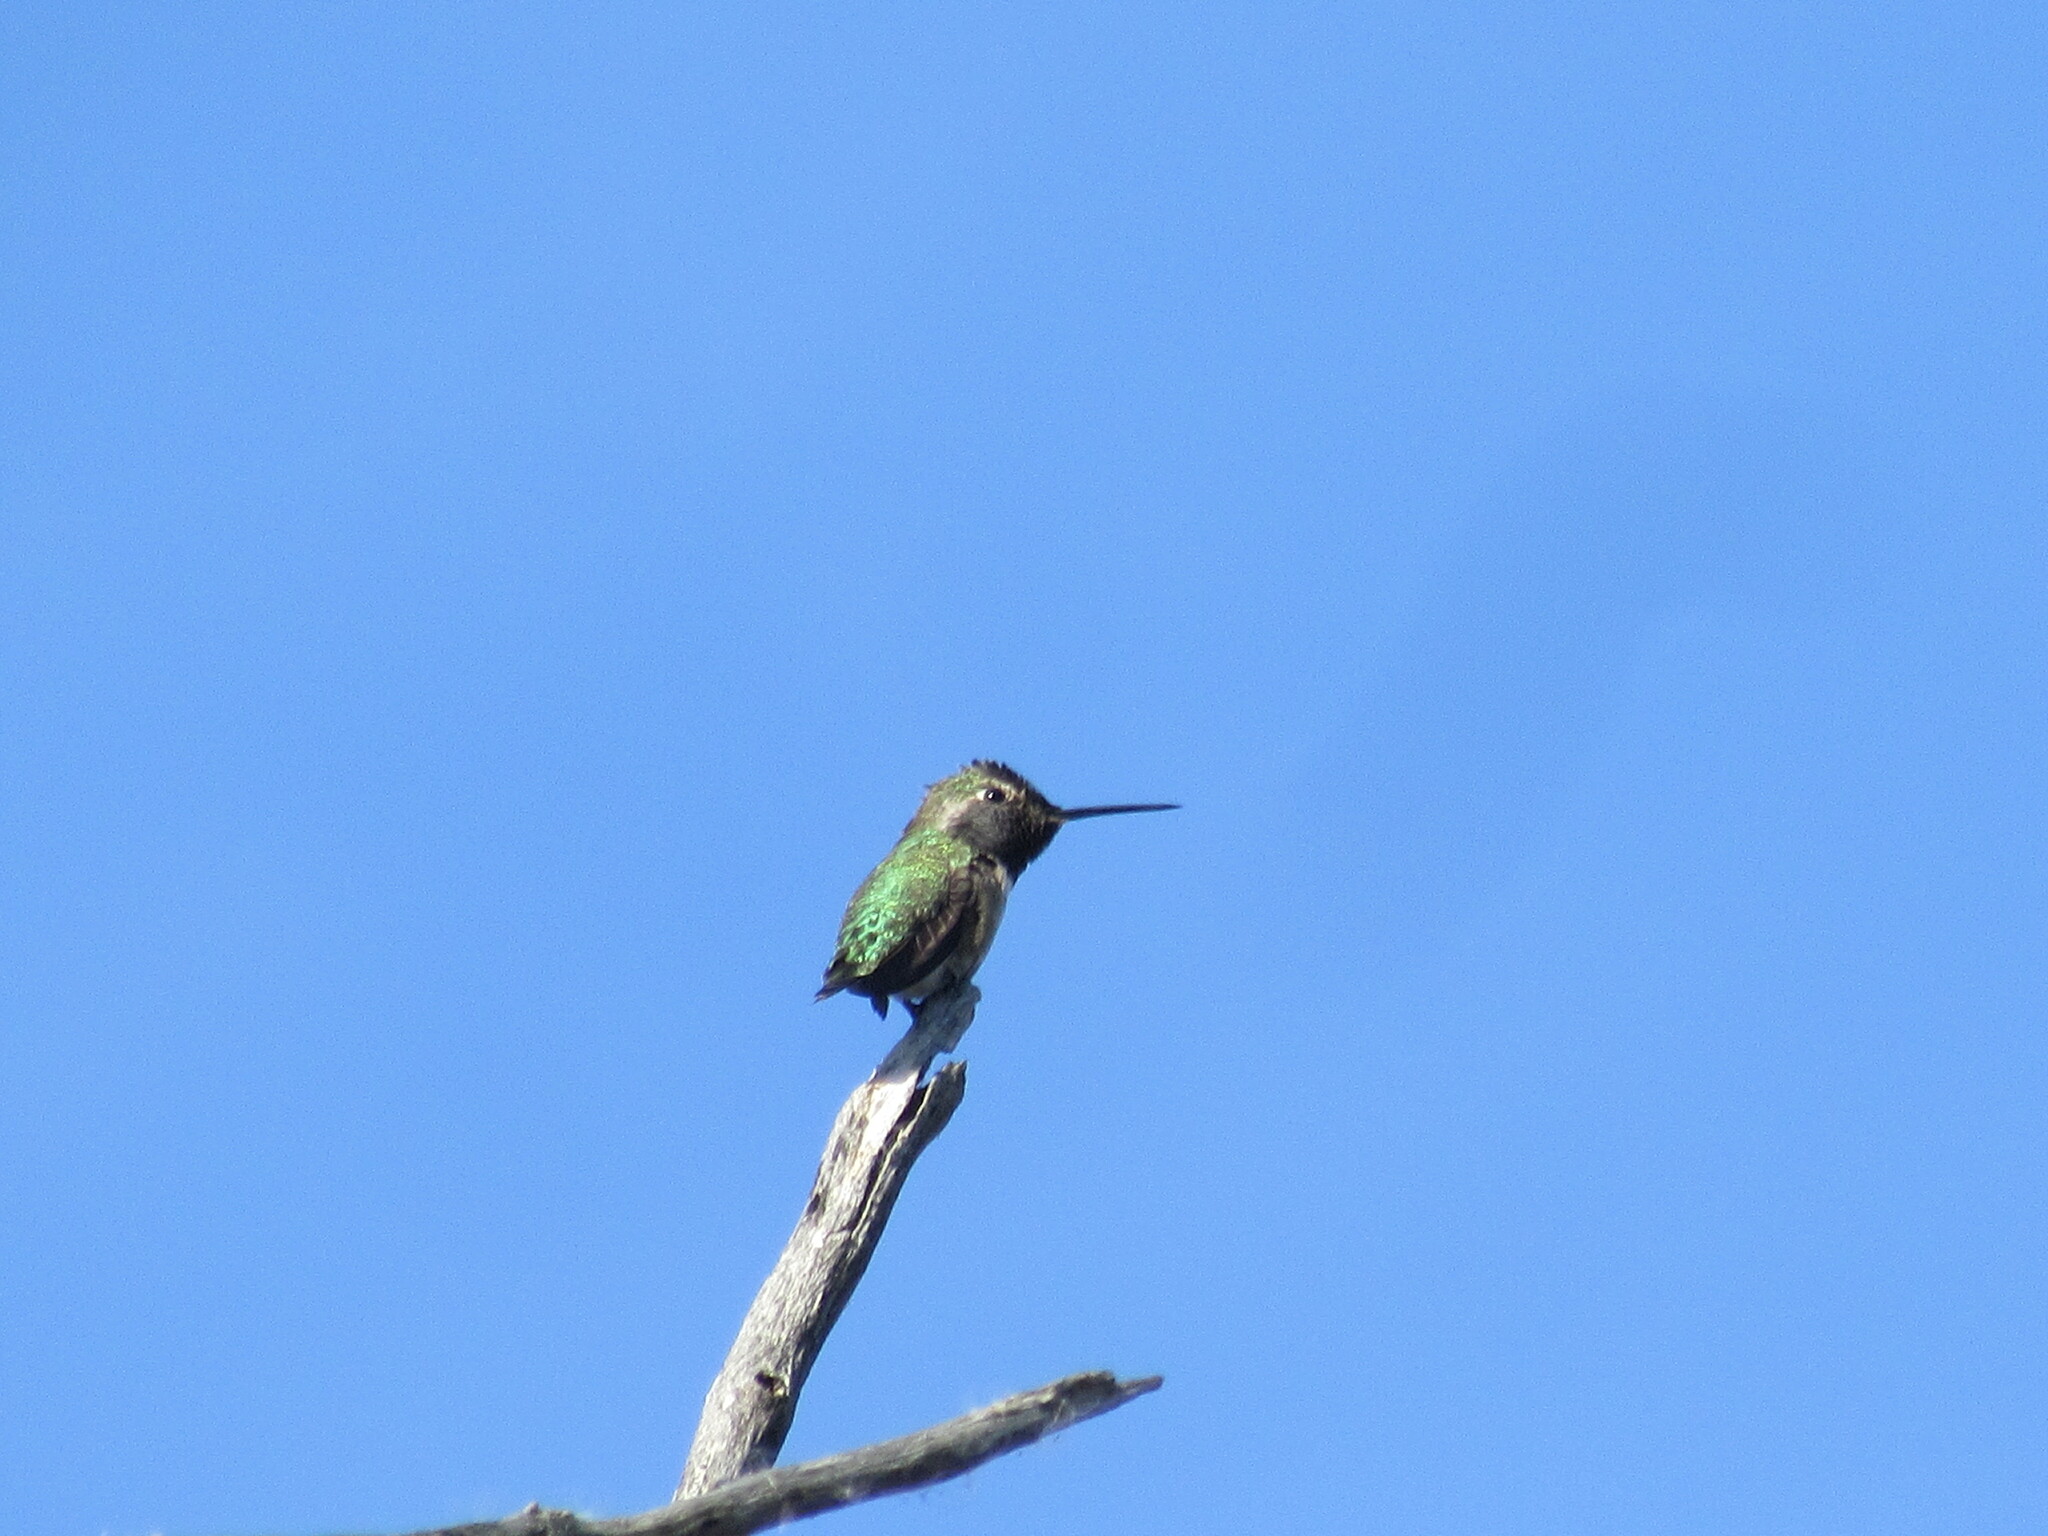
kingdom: Animalia
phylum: Chordata
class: Aves
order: Apodiformes
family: Trochilidae
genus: Calypte
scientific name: Calypte anna
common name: Anna's hummingbird
